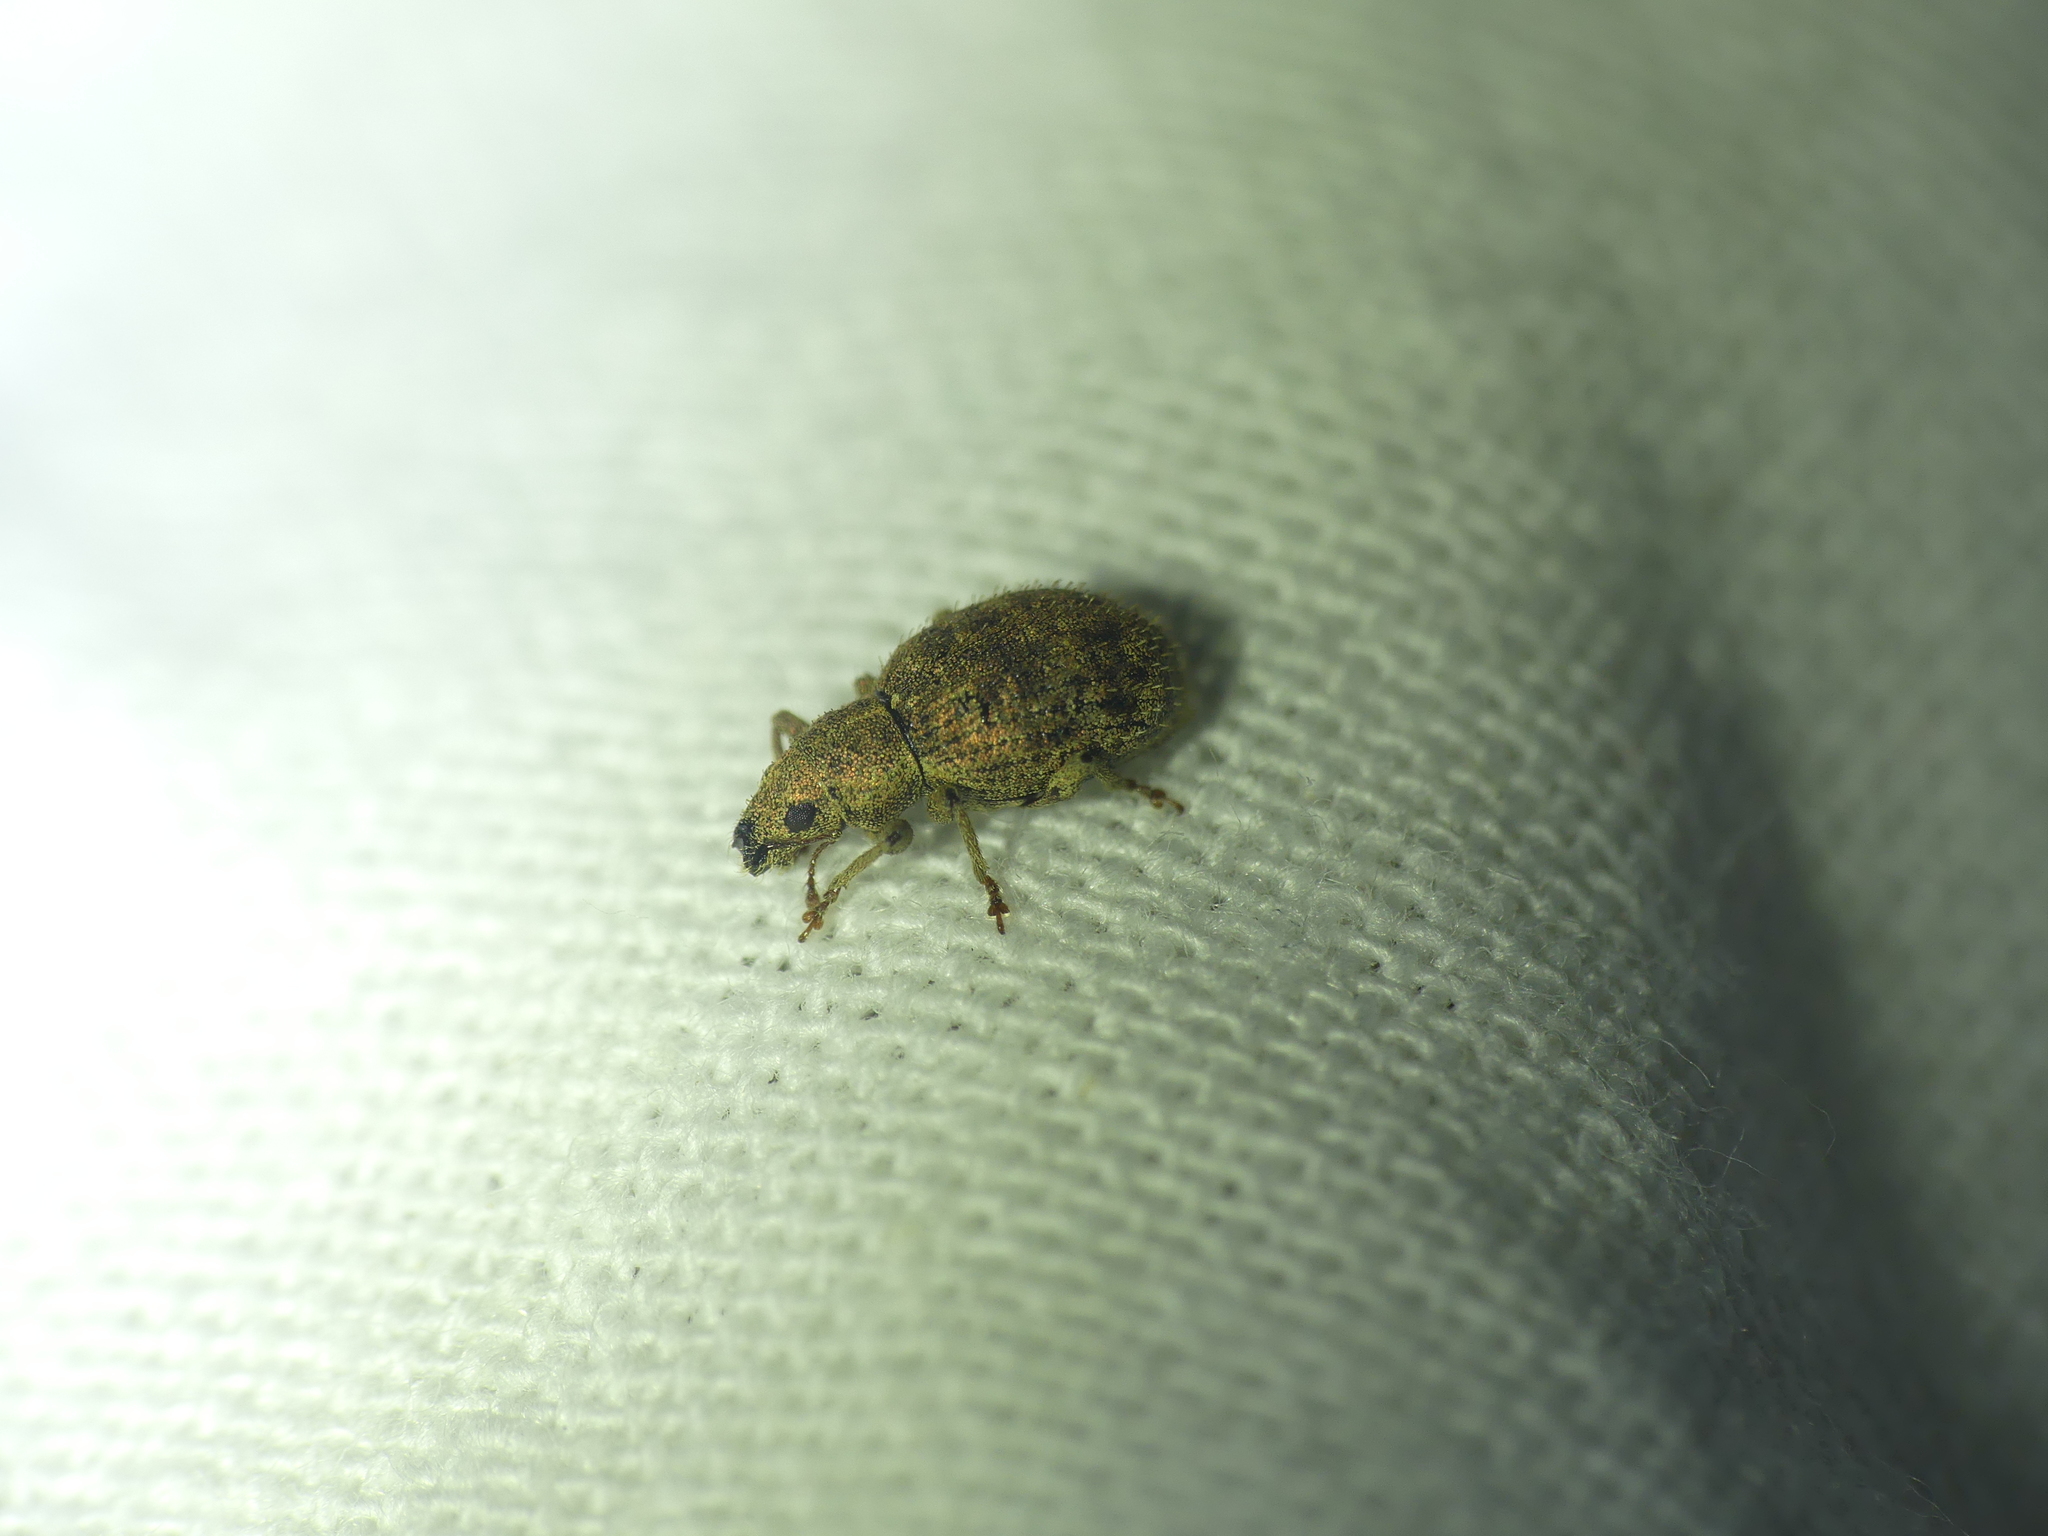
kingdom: Animalia
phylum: Arthropoda
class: Insecta
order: Coleoptera
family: Curculionidae
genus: Sciaphilus
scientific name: Sciaphilus asperatus
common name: Weevil
